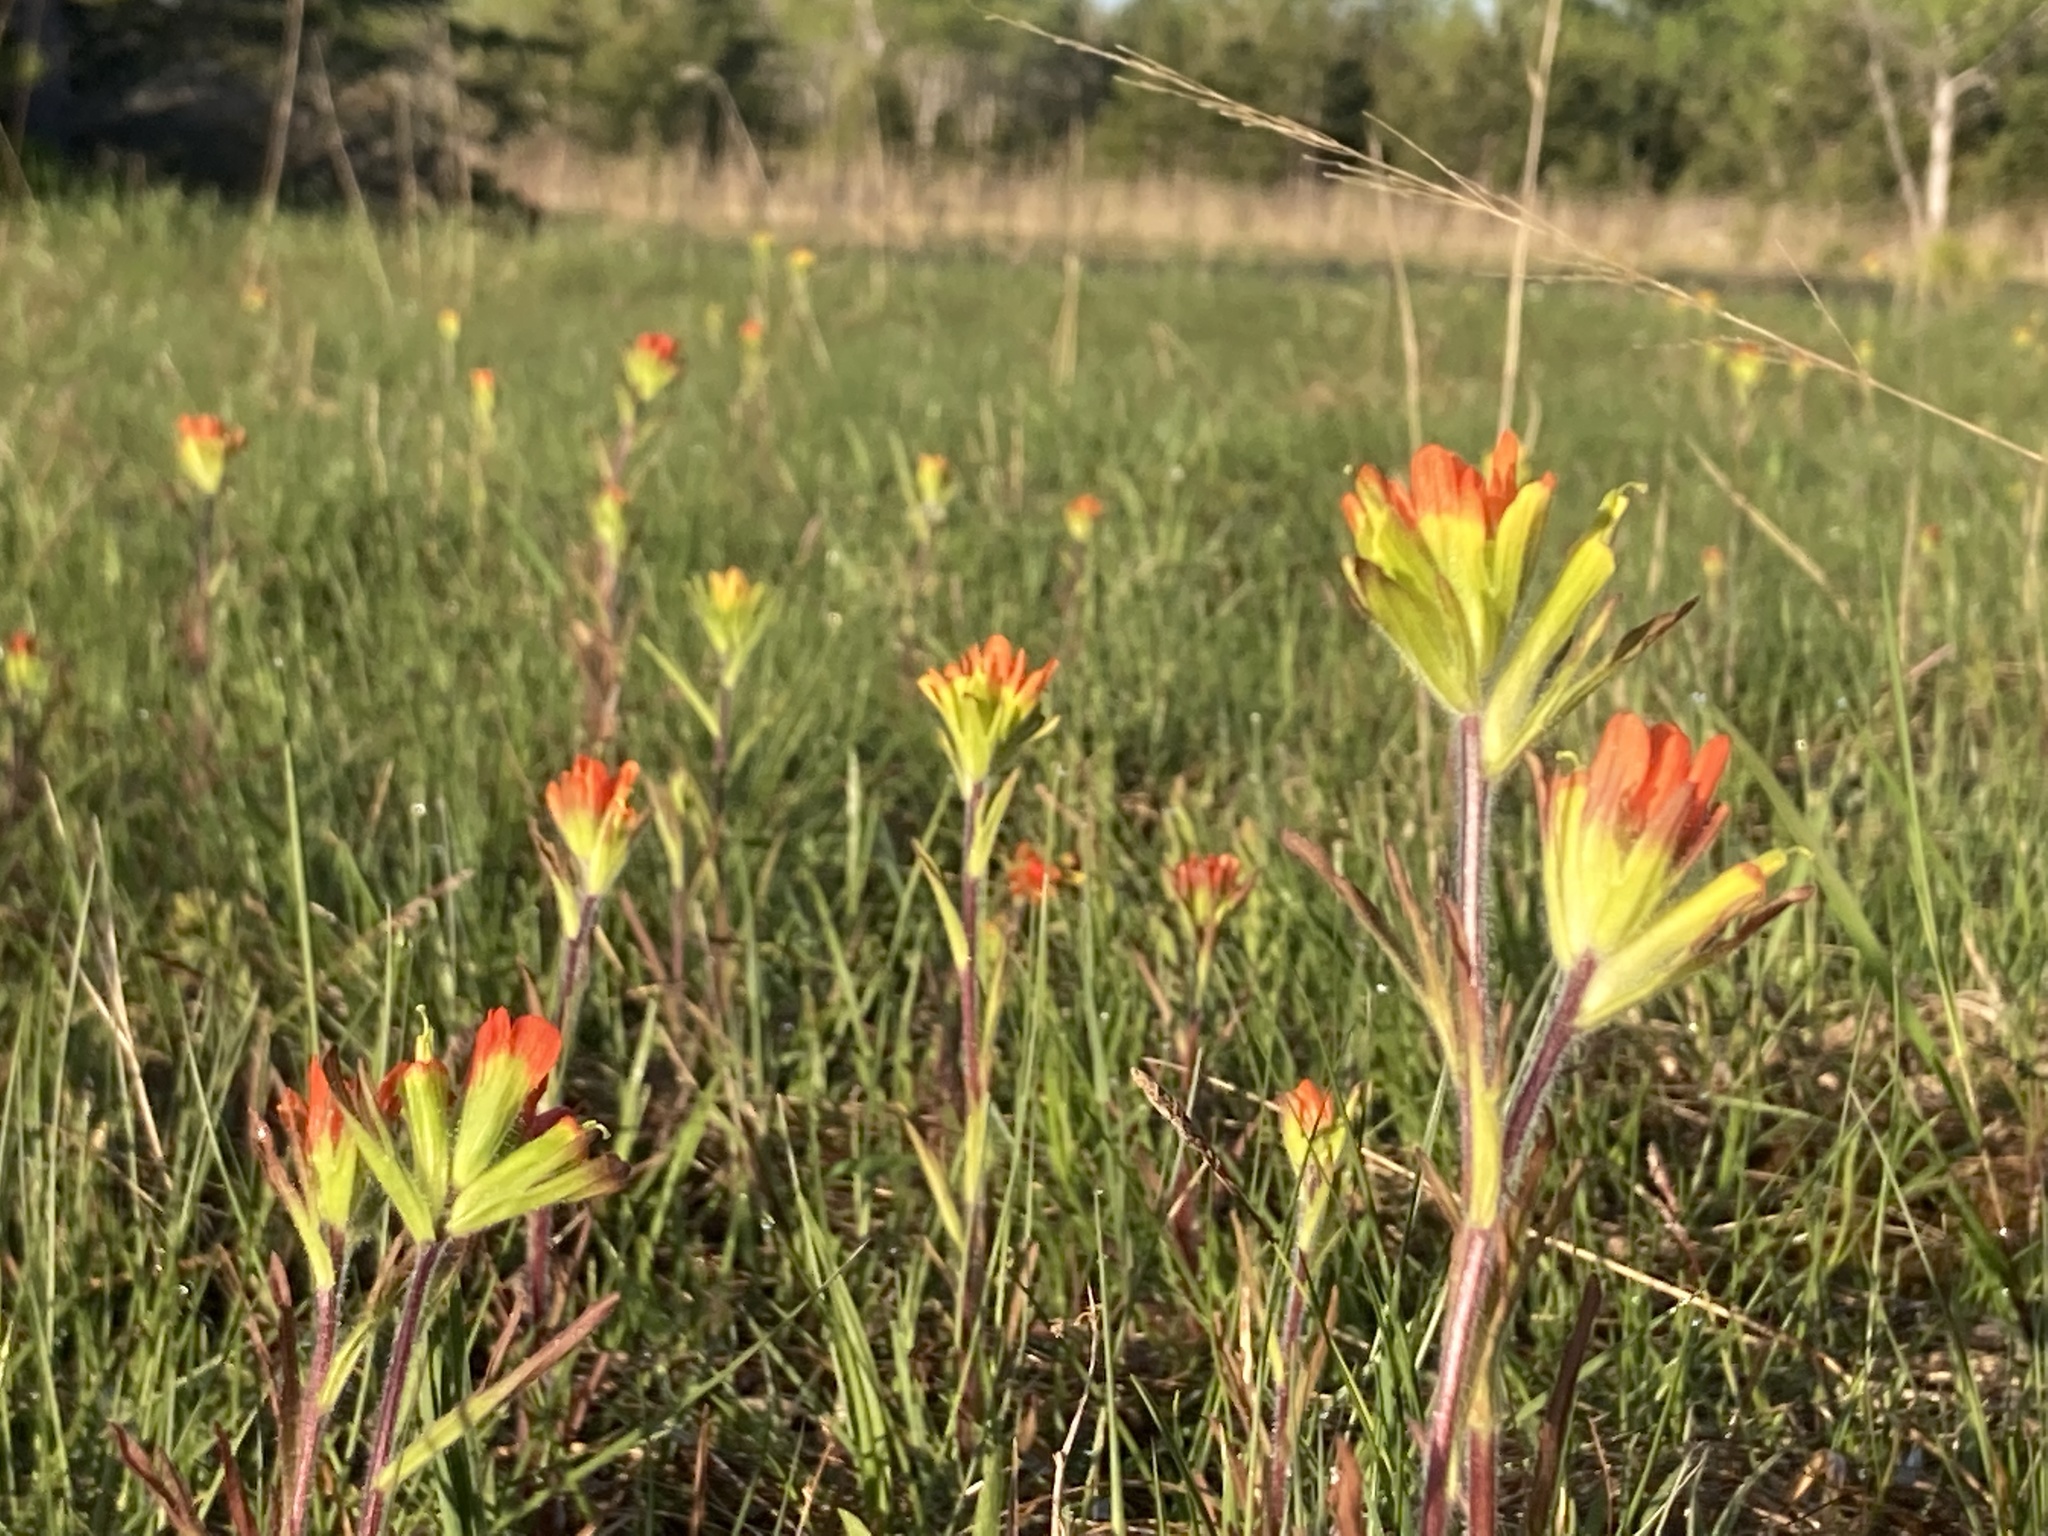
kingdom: Plantae
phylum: Tracheophyta
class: Magnoliopsida
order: Lamiales
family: Orobanchaceae
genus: Castilleja
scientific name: Castilleja coccinea
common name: Scarlet paintbrush
